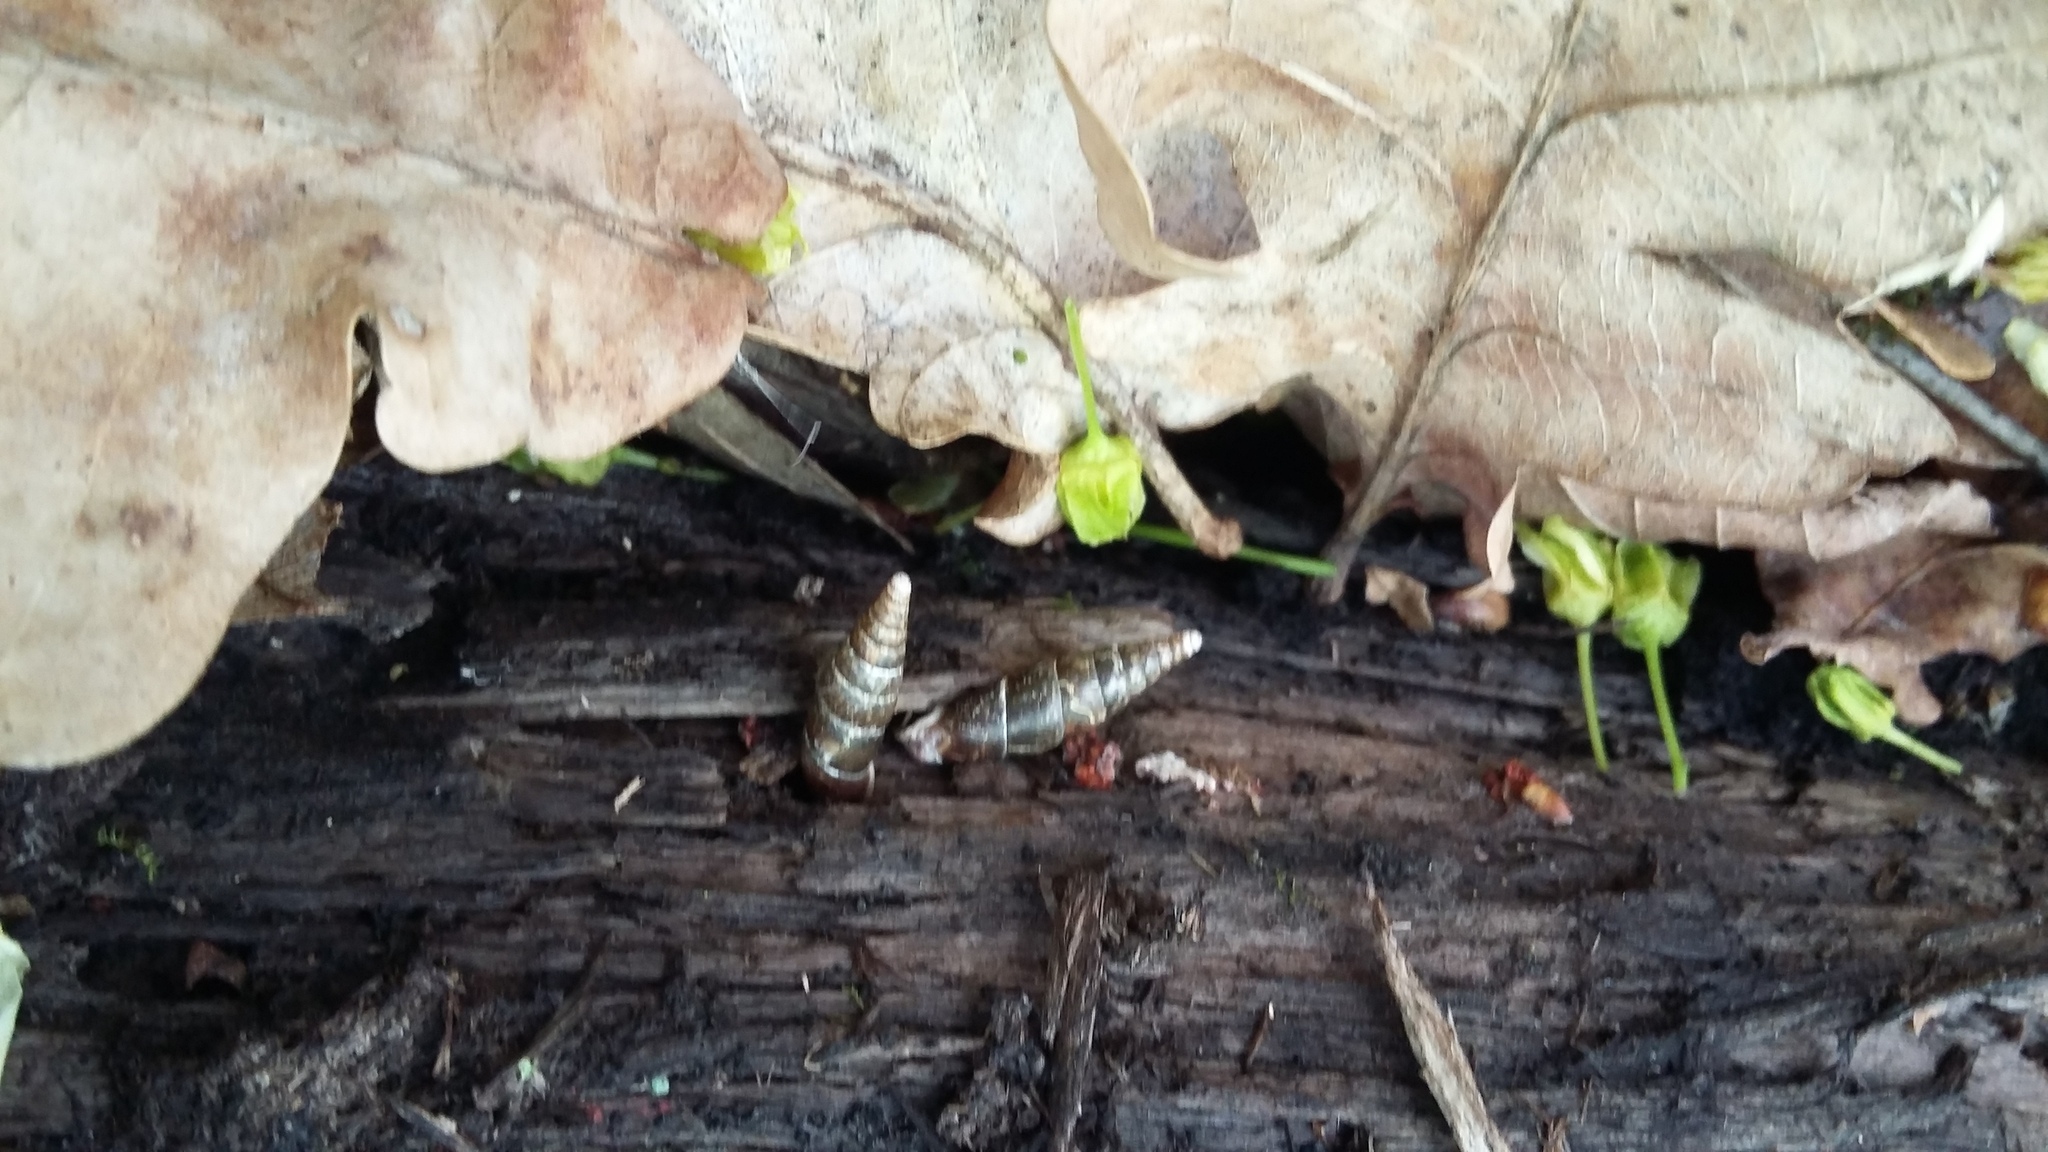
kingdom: Animalia
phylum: Mollusca
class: Gastropoda
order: Stylommatophora
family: Clausiliidae
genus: Cochlodina
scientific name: Cochlodina laminata
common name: Plaited door snail
